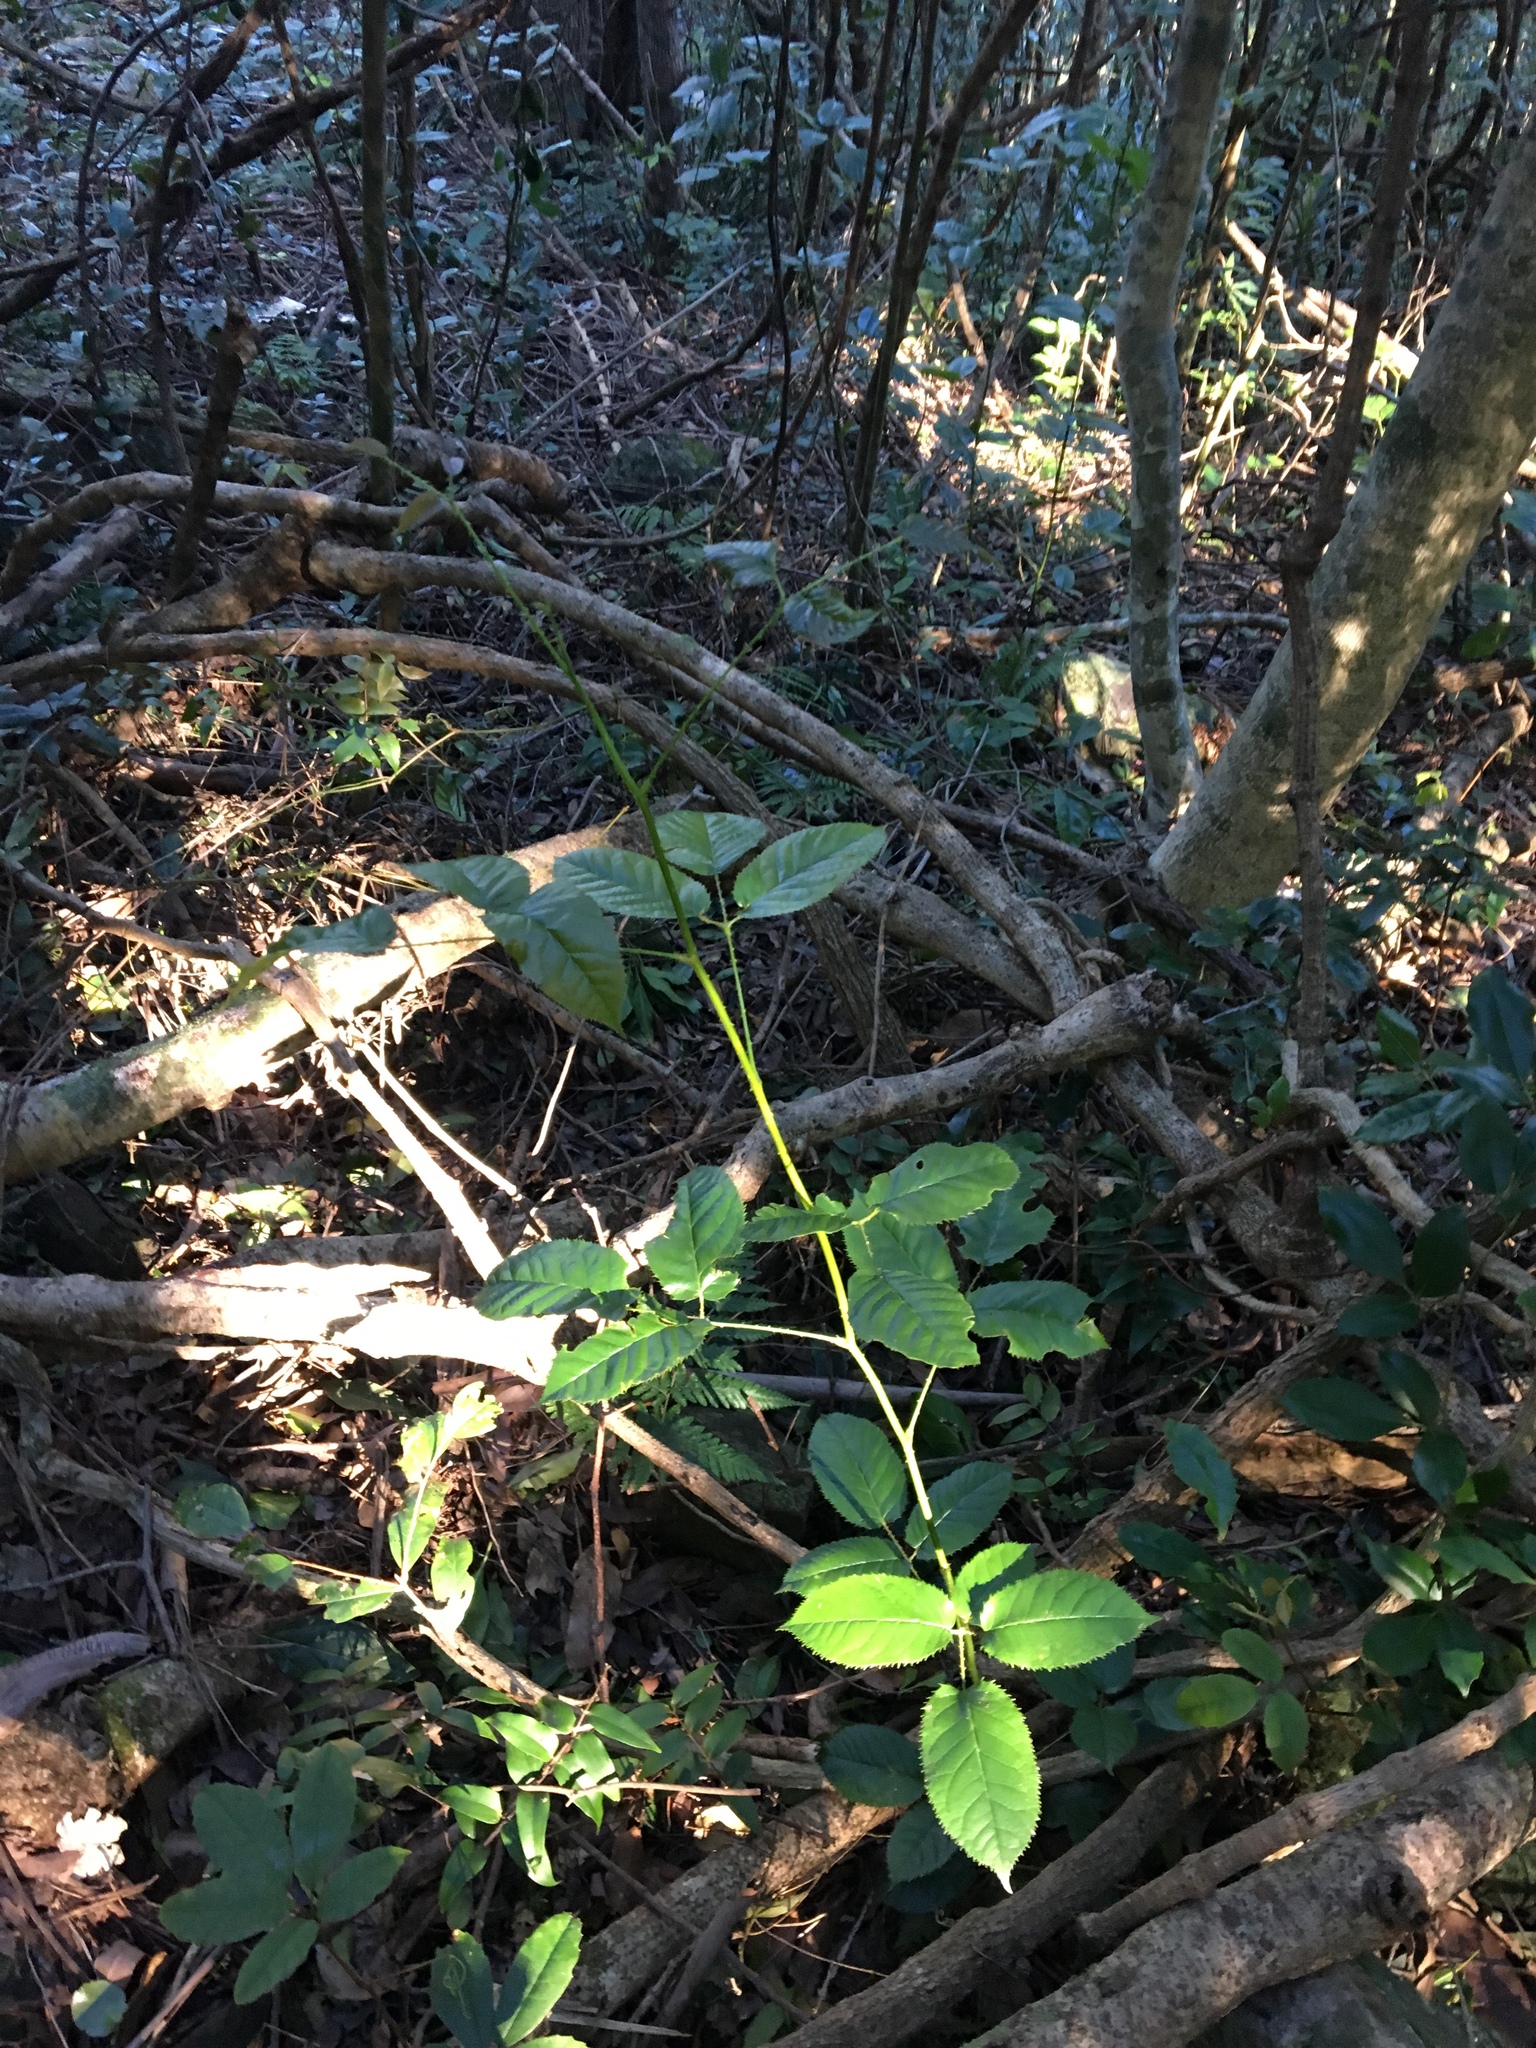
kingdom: Plantae
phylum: Tracheophyta
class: Magnoliopsida
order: Rosales
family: Rosaceae
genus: Rubus
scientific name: Rubus nebulosus
